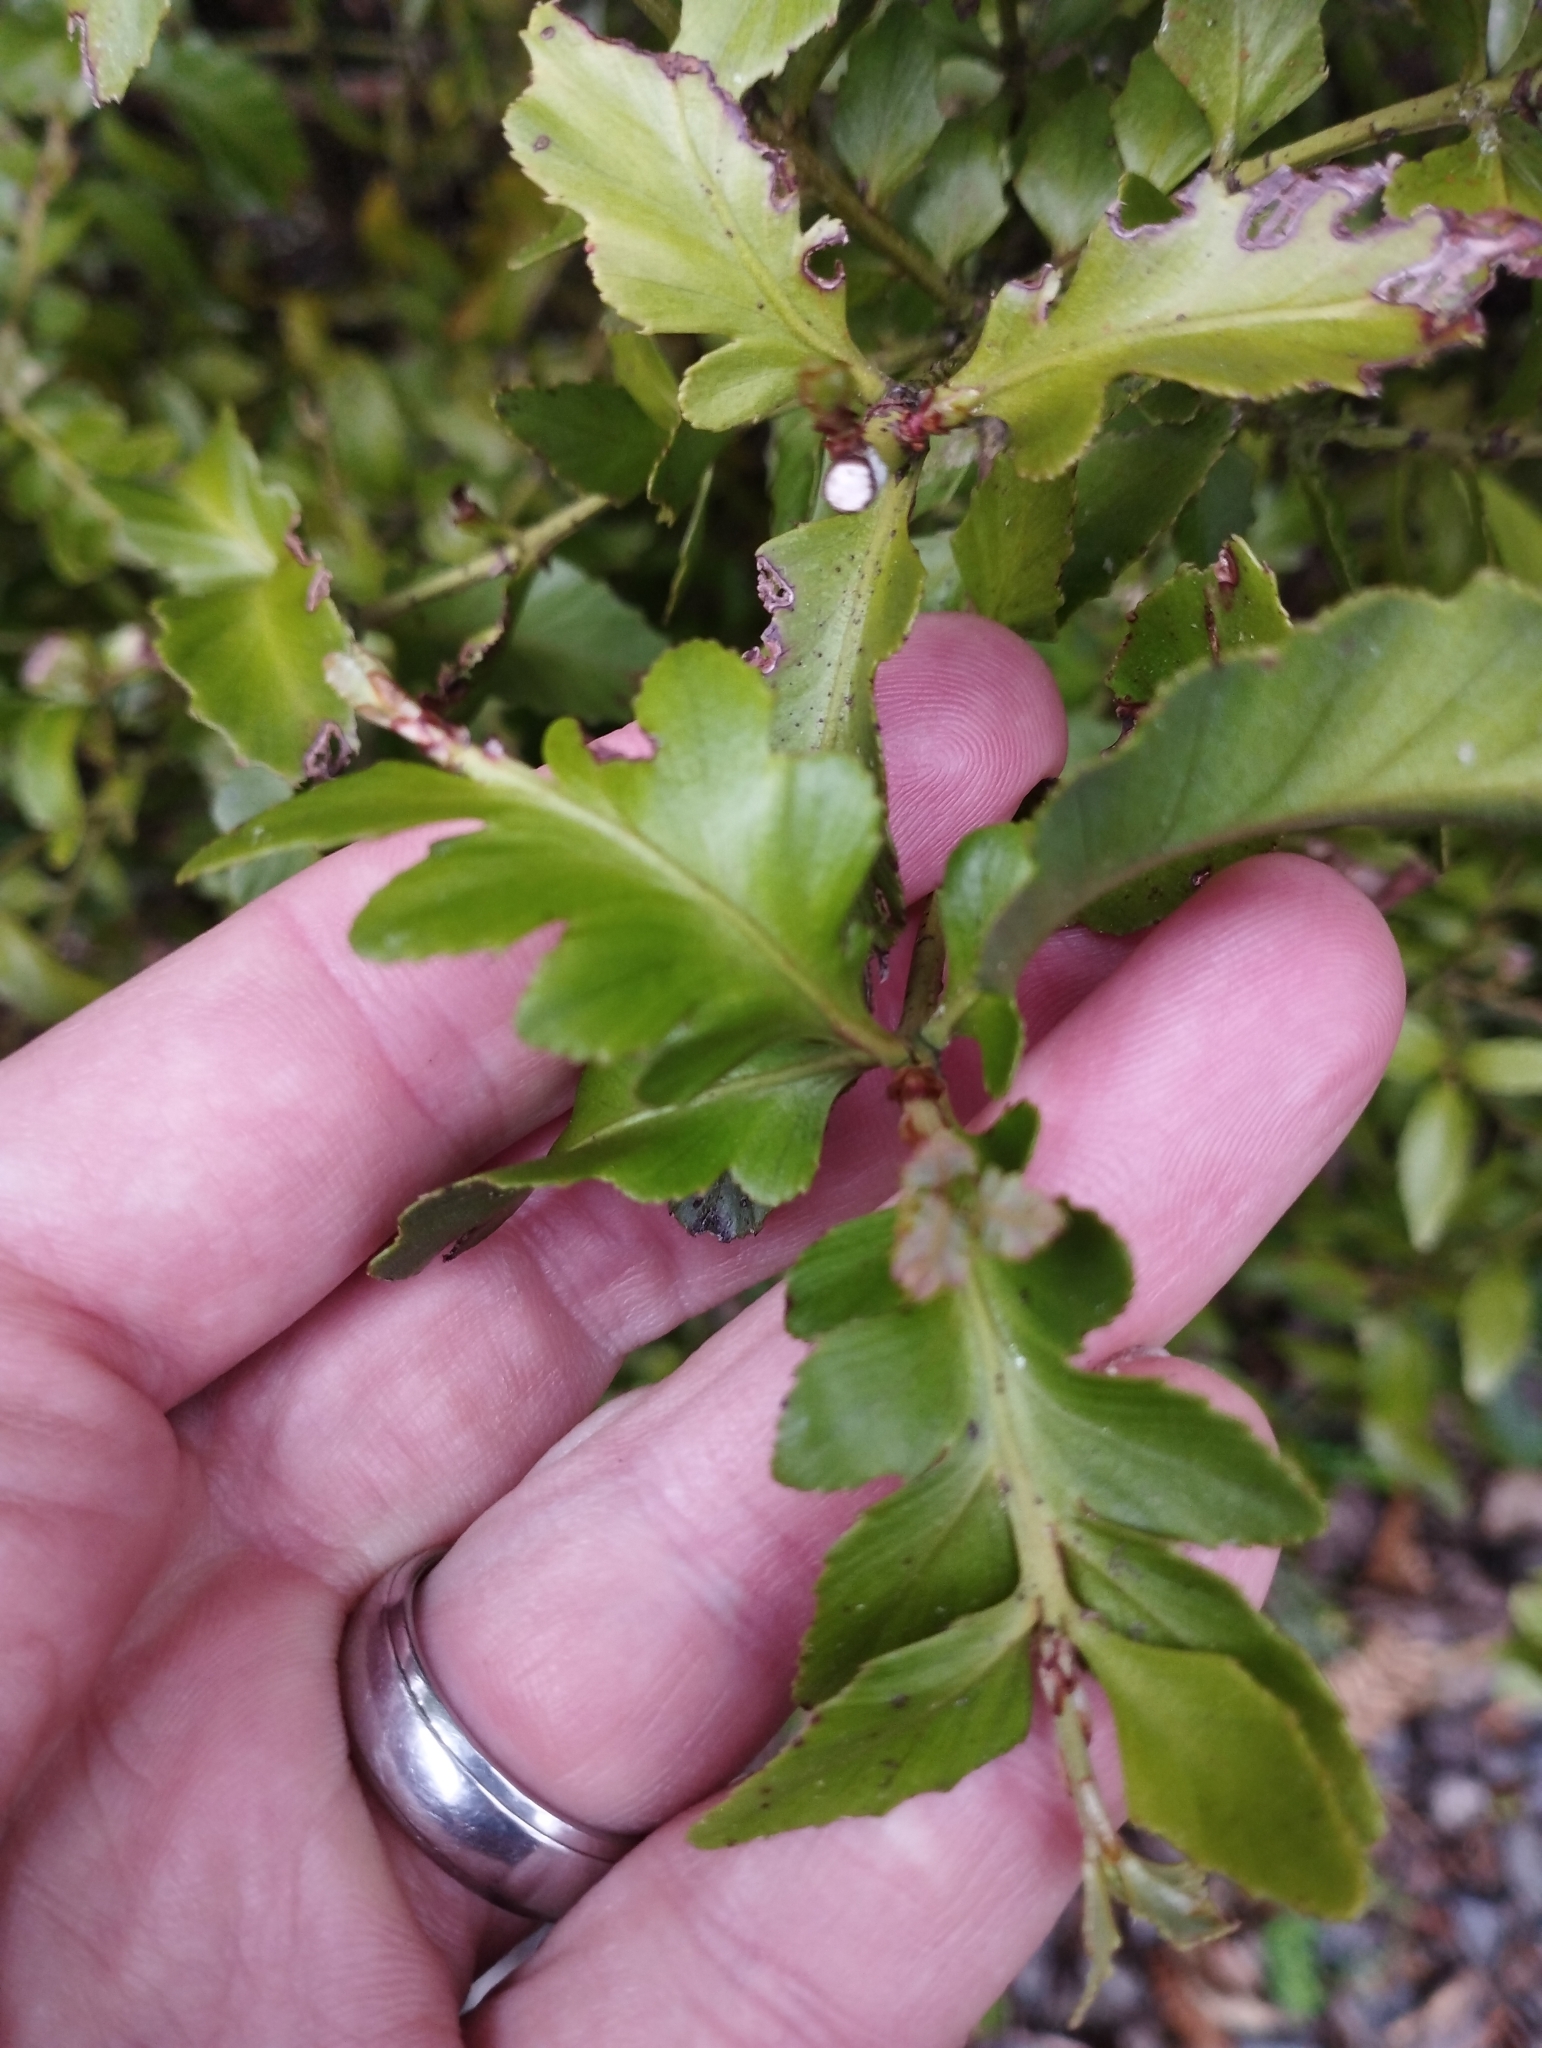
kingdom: Plantae
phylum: Tracheophyta
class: Pinopsida
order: Pinales
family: Phyllocladaceae
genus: Phyllocladus
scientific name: Phyllocladus trichomanoides
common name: Celery pine
